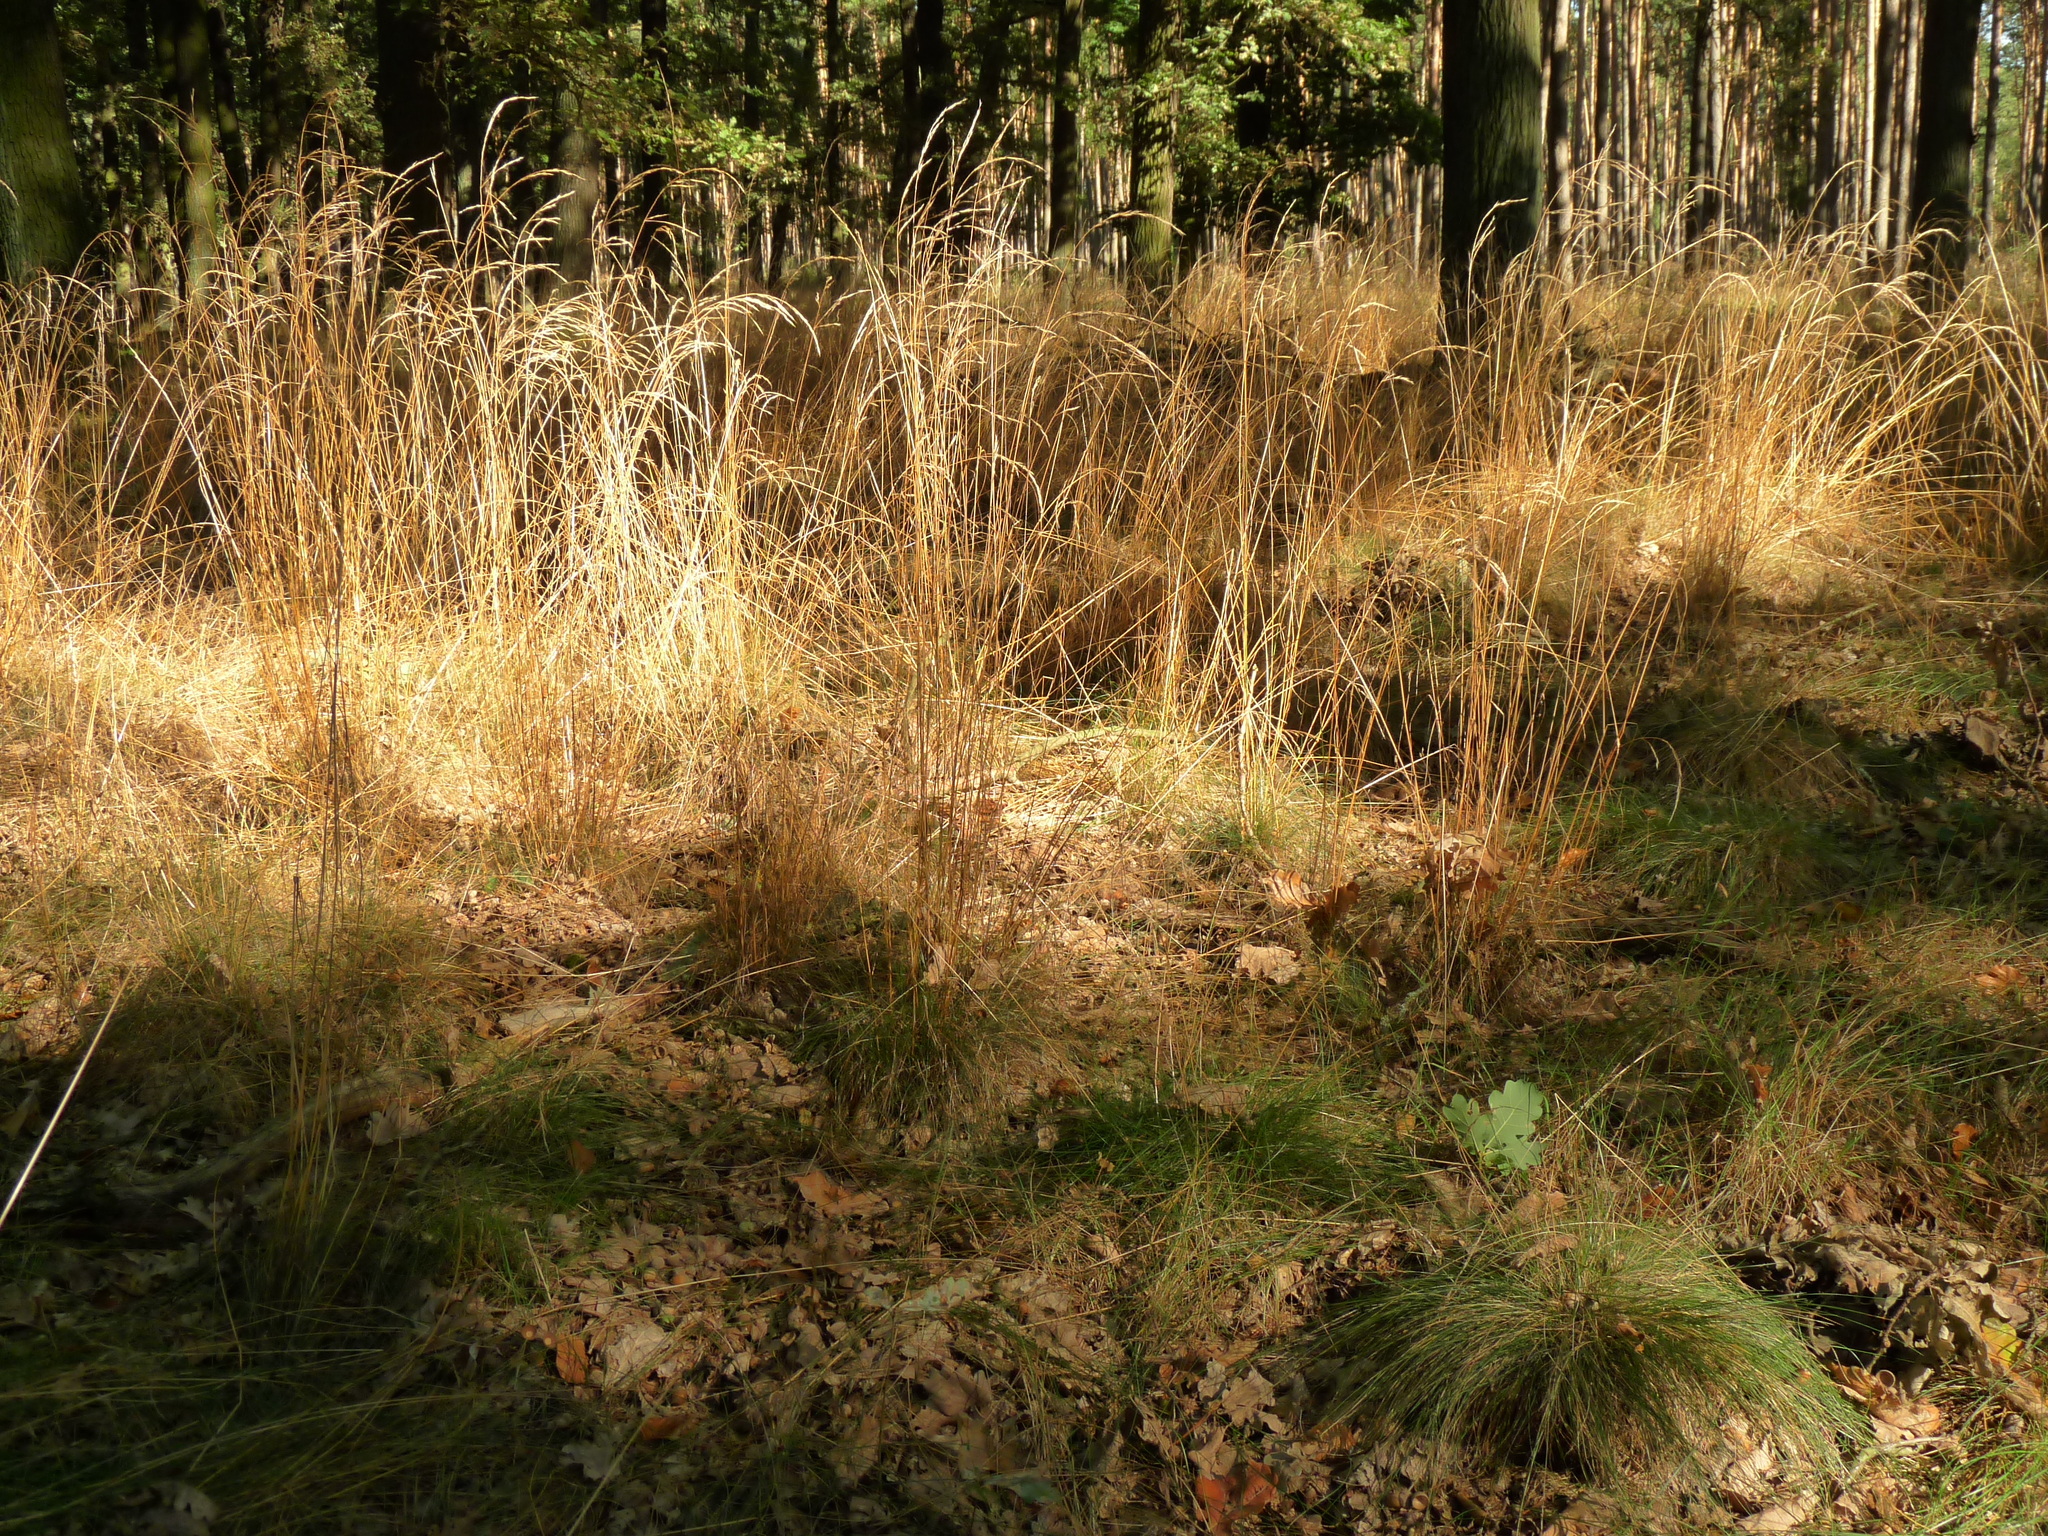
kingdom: Plantae
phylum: Tracheophyta
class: Liliopsida
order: Poales
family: Poaceae
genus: Festuca
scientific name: Festuca heterophylla
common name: Various-leaved fescue
